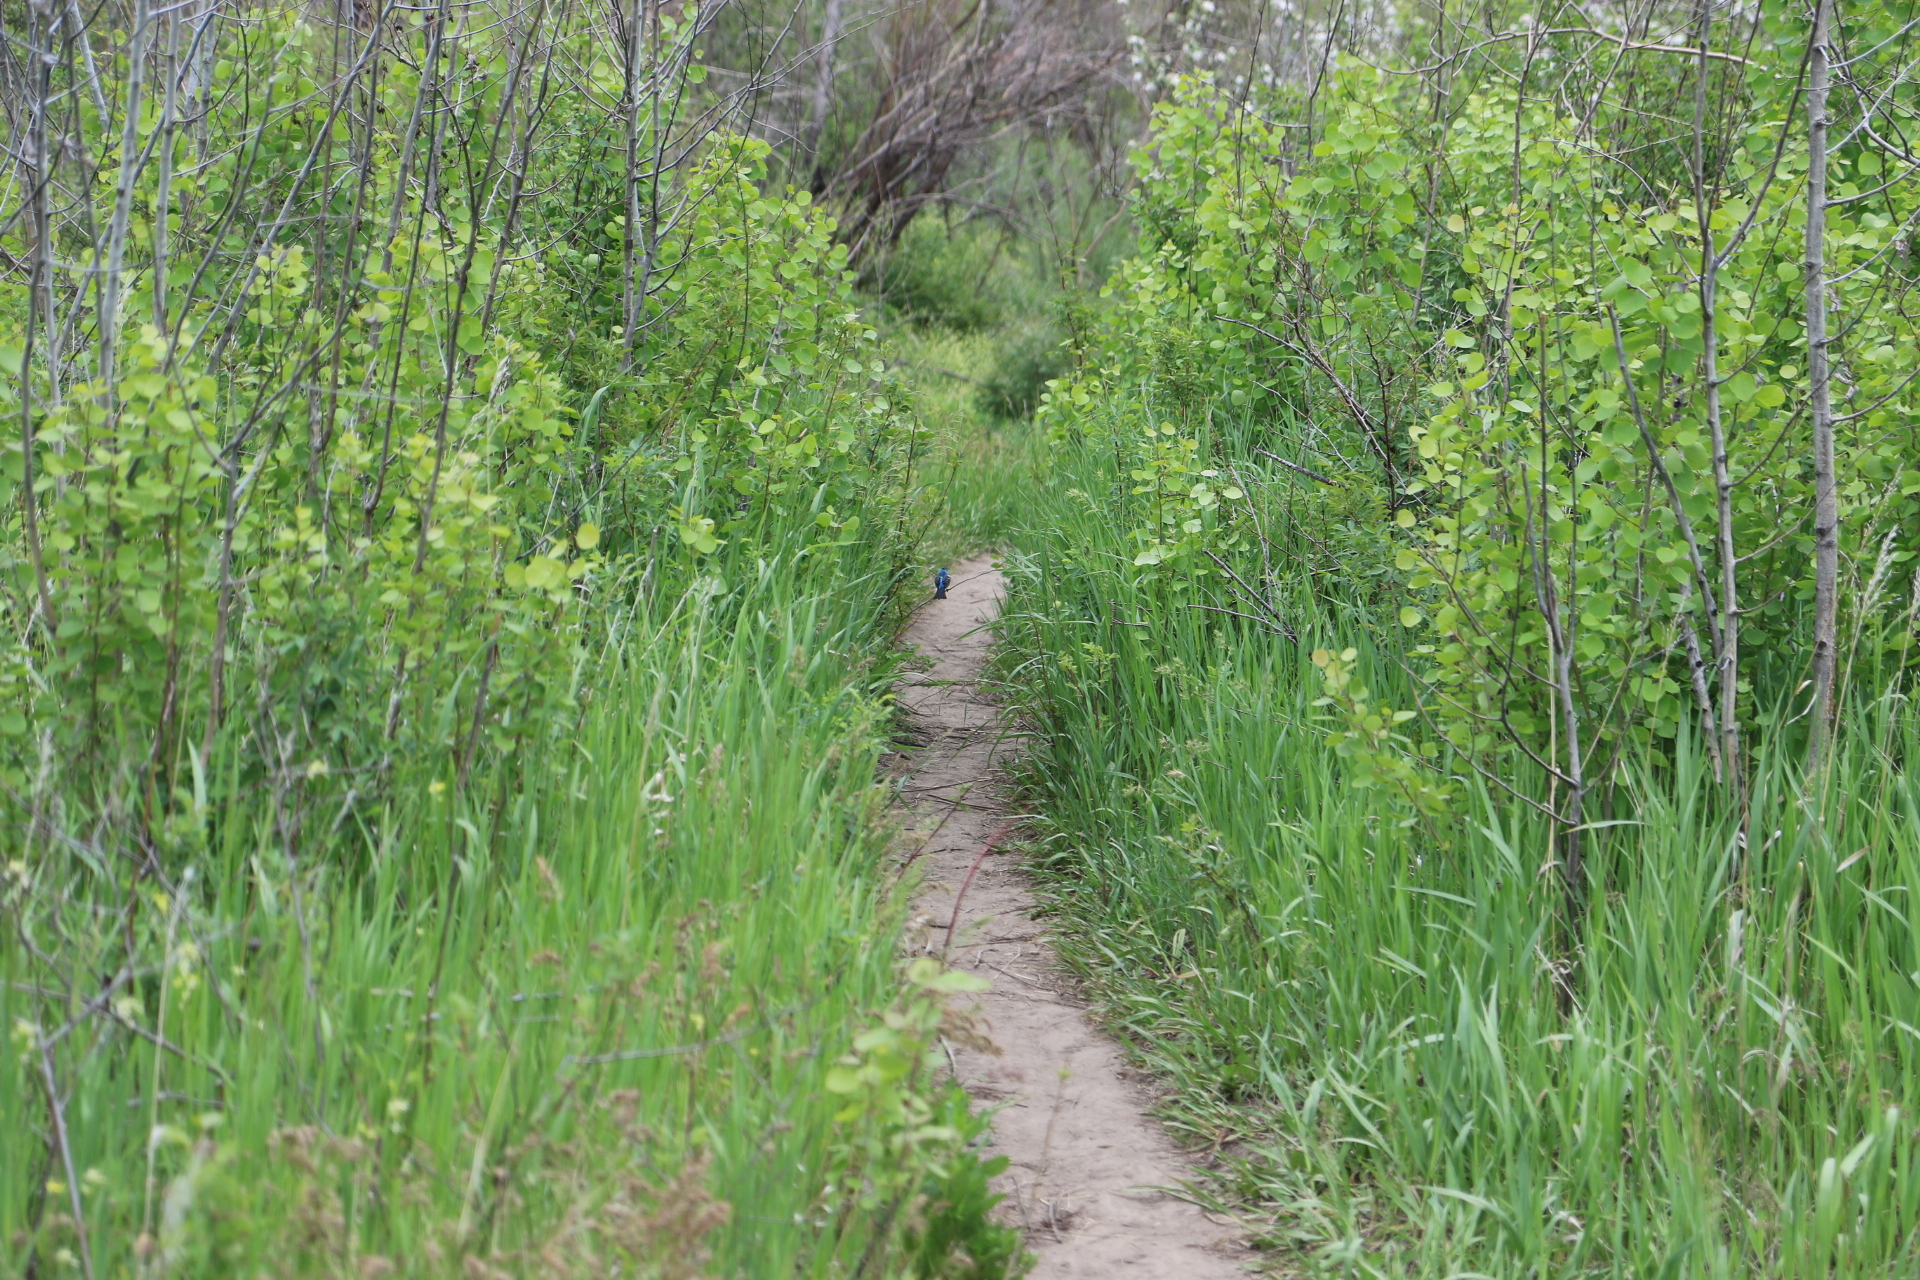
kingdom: Animalia
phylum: Chordata
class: Aves
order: Passeriformes
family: Cardinalidae
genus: Passerina
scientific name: Passerina amoena
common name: Lazuli bunting
